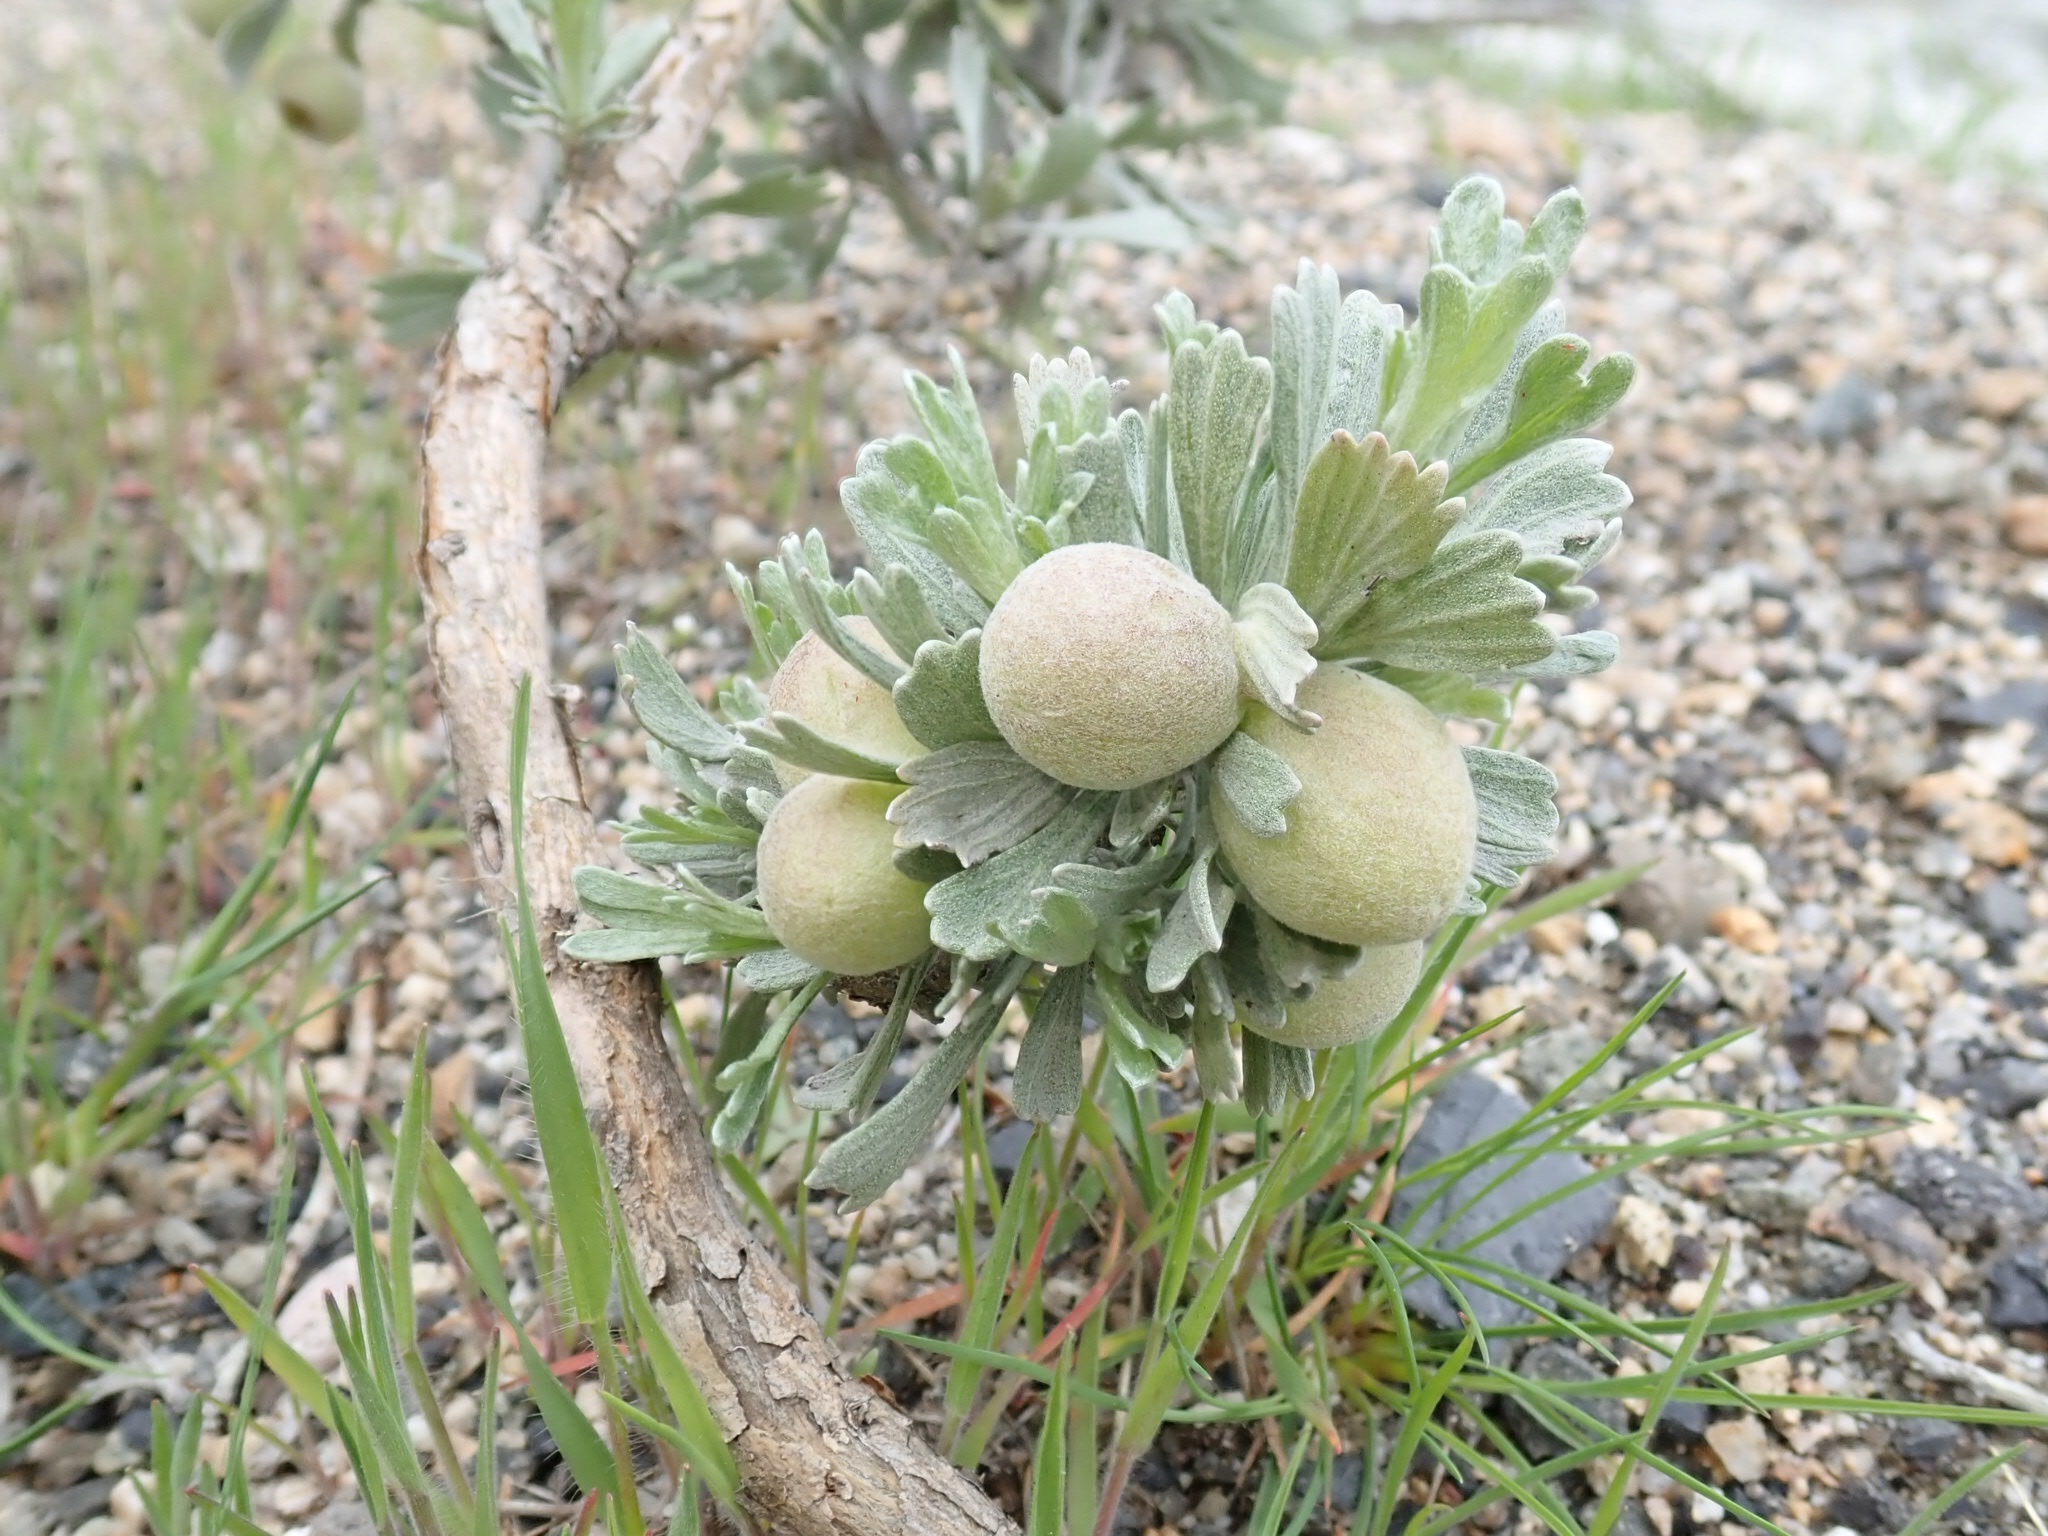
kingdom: Plantae
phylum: Tracheophyta
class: Magnoliopsida
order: Asterales
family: Asteraceae
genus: Artemisia
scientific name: Artemisia tridentata
